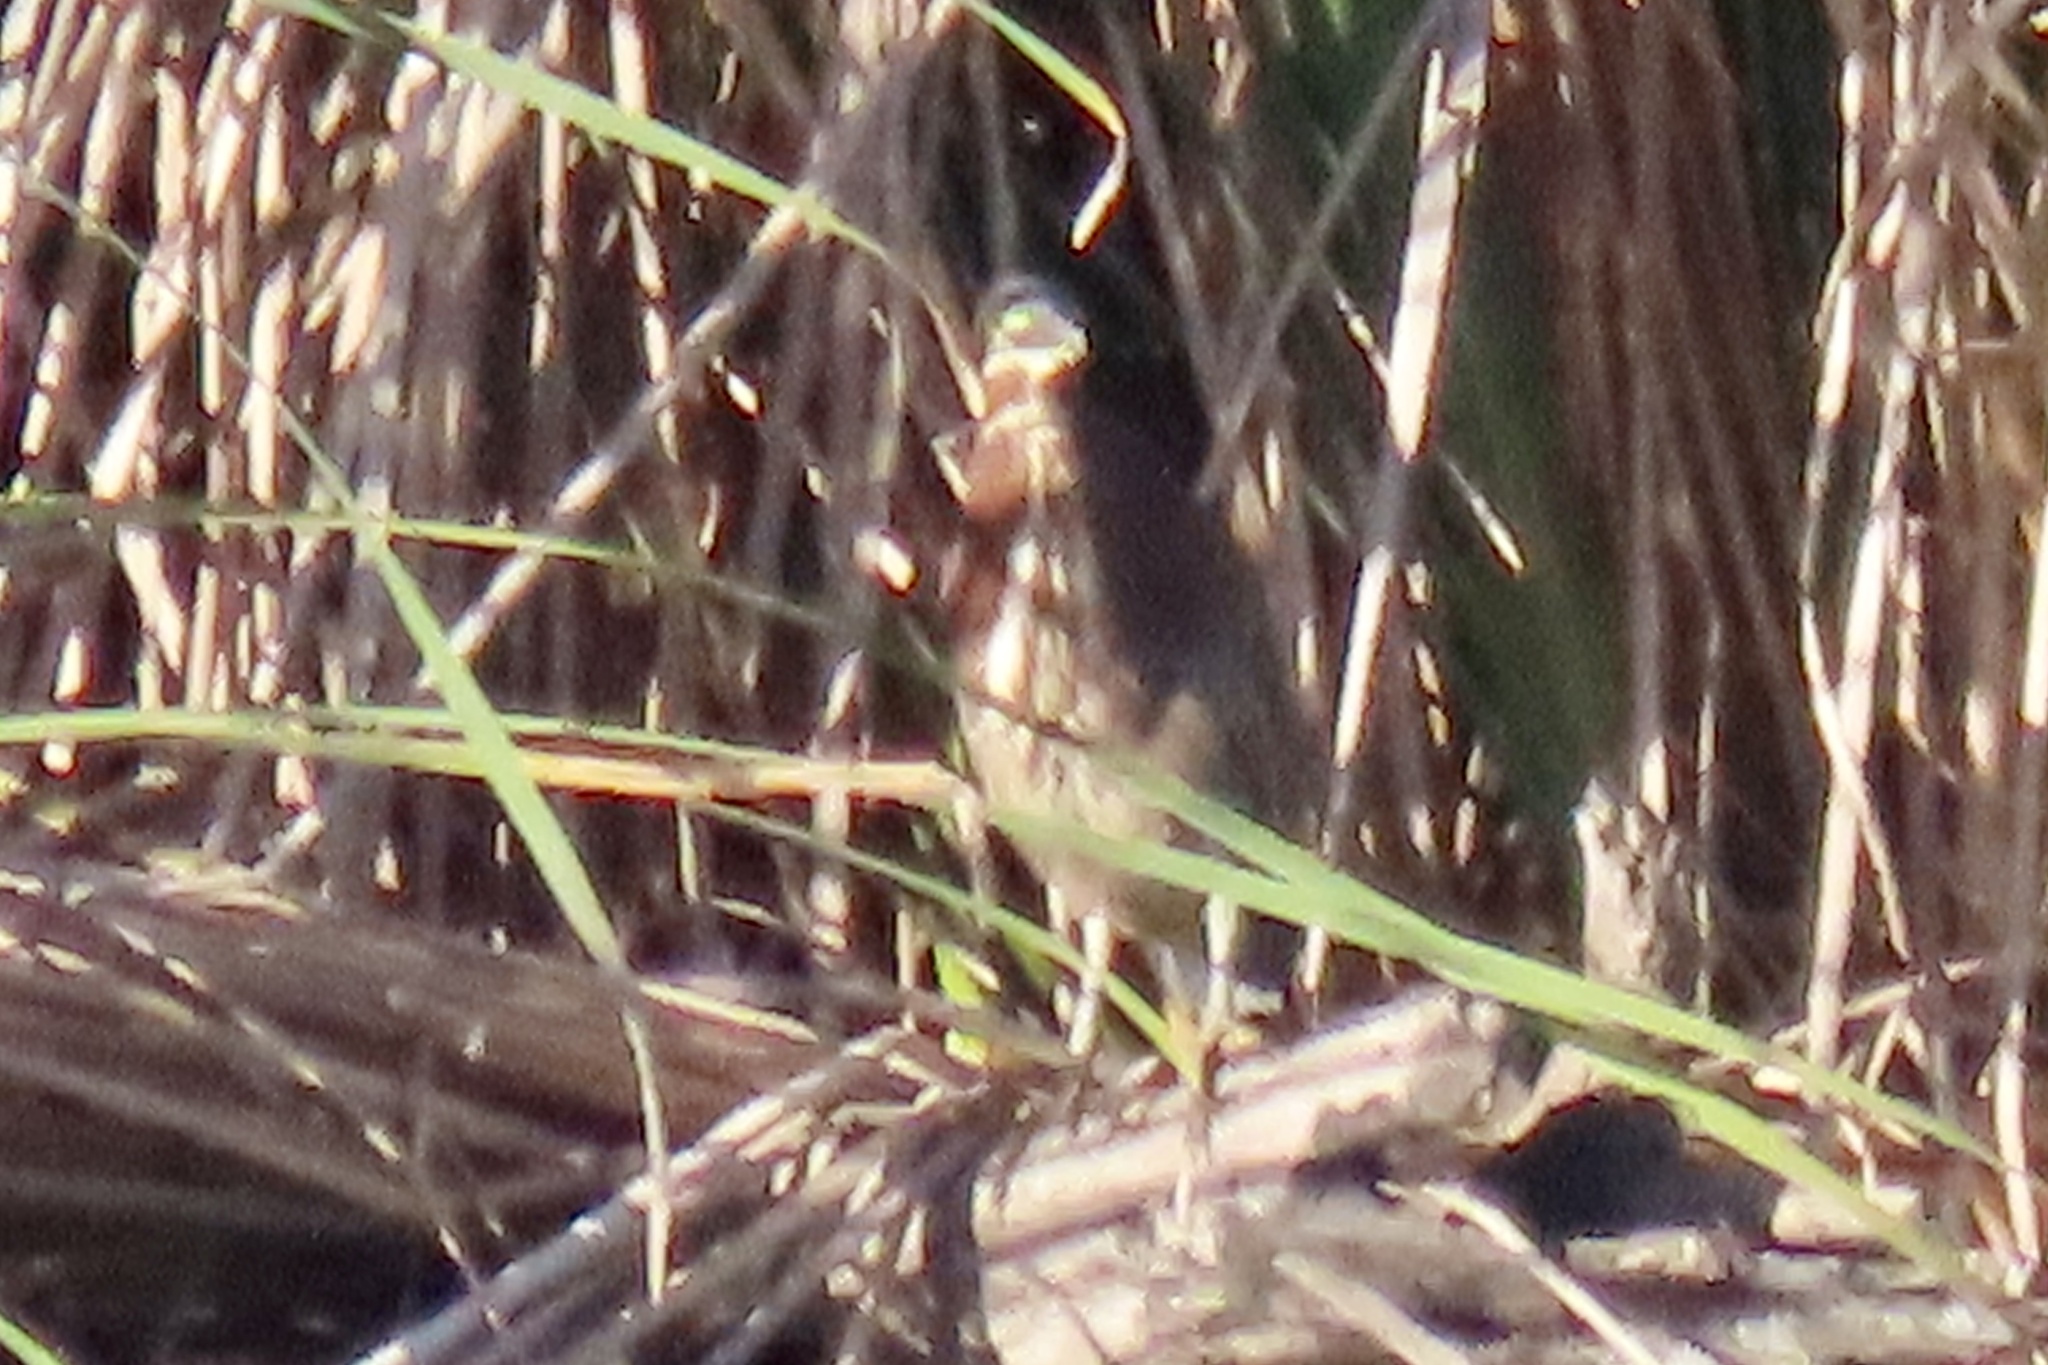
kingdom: Animalia
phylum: Chordata
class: Aves
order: Pelecaniformes
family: Ardeidae
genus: Butorides
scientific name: Butorides virescens
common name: Green heron
